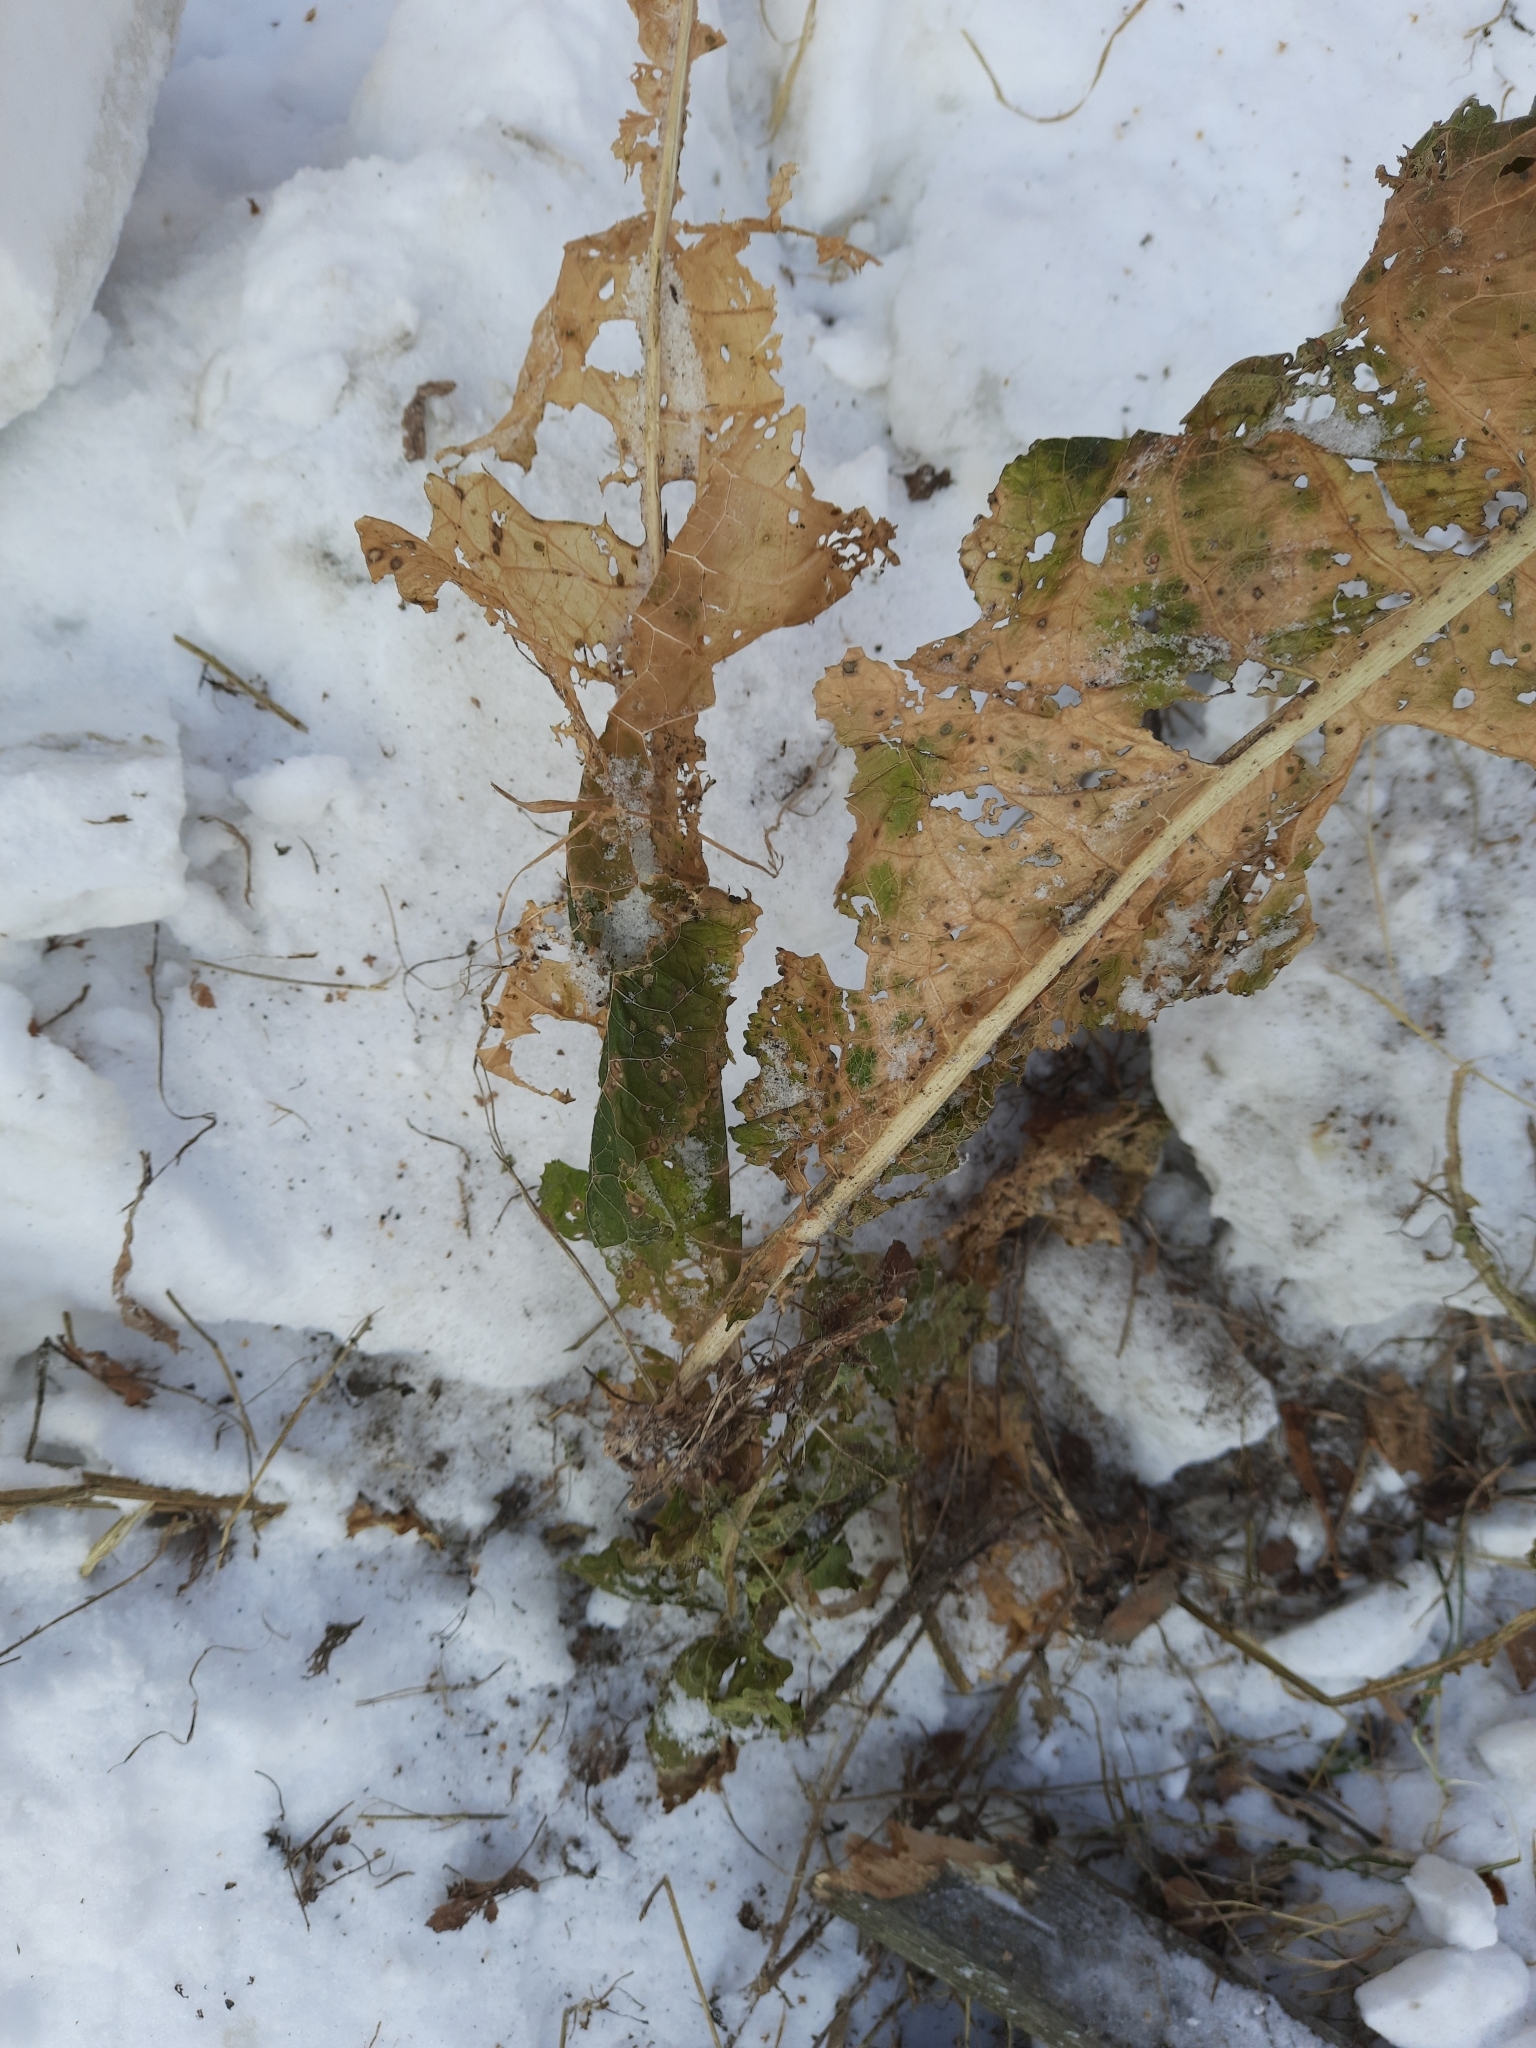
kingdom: Plantae
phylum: Tracheophyta
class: Magnoliopsida
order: Brassicales
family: Brassicaceae
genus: Armoracia
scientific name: Armoracia rusticana
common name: Horseradish
